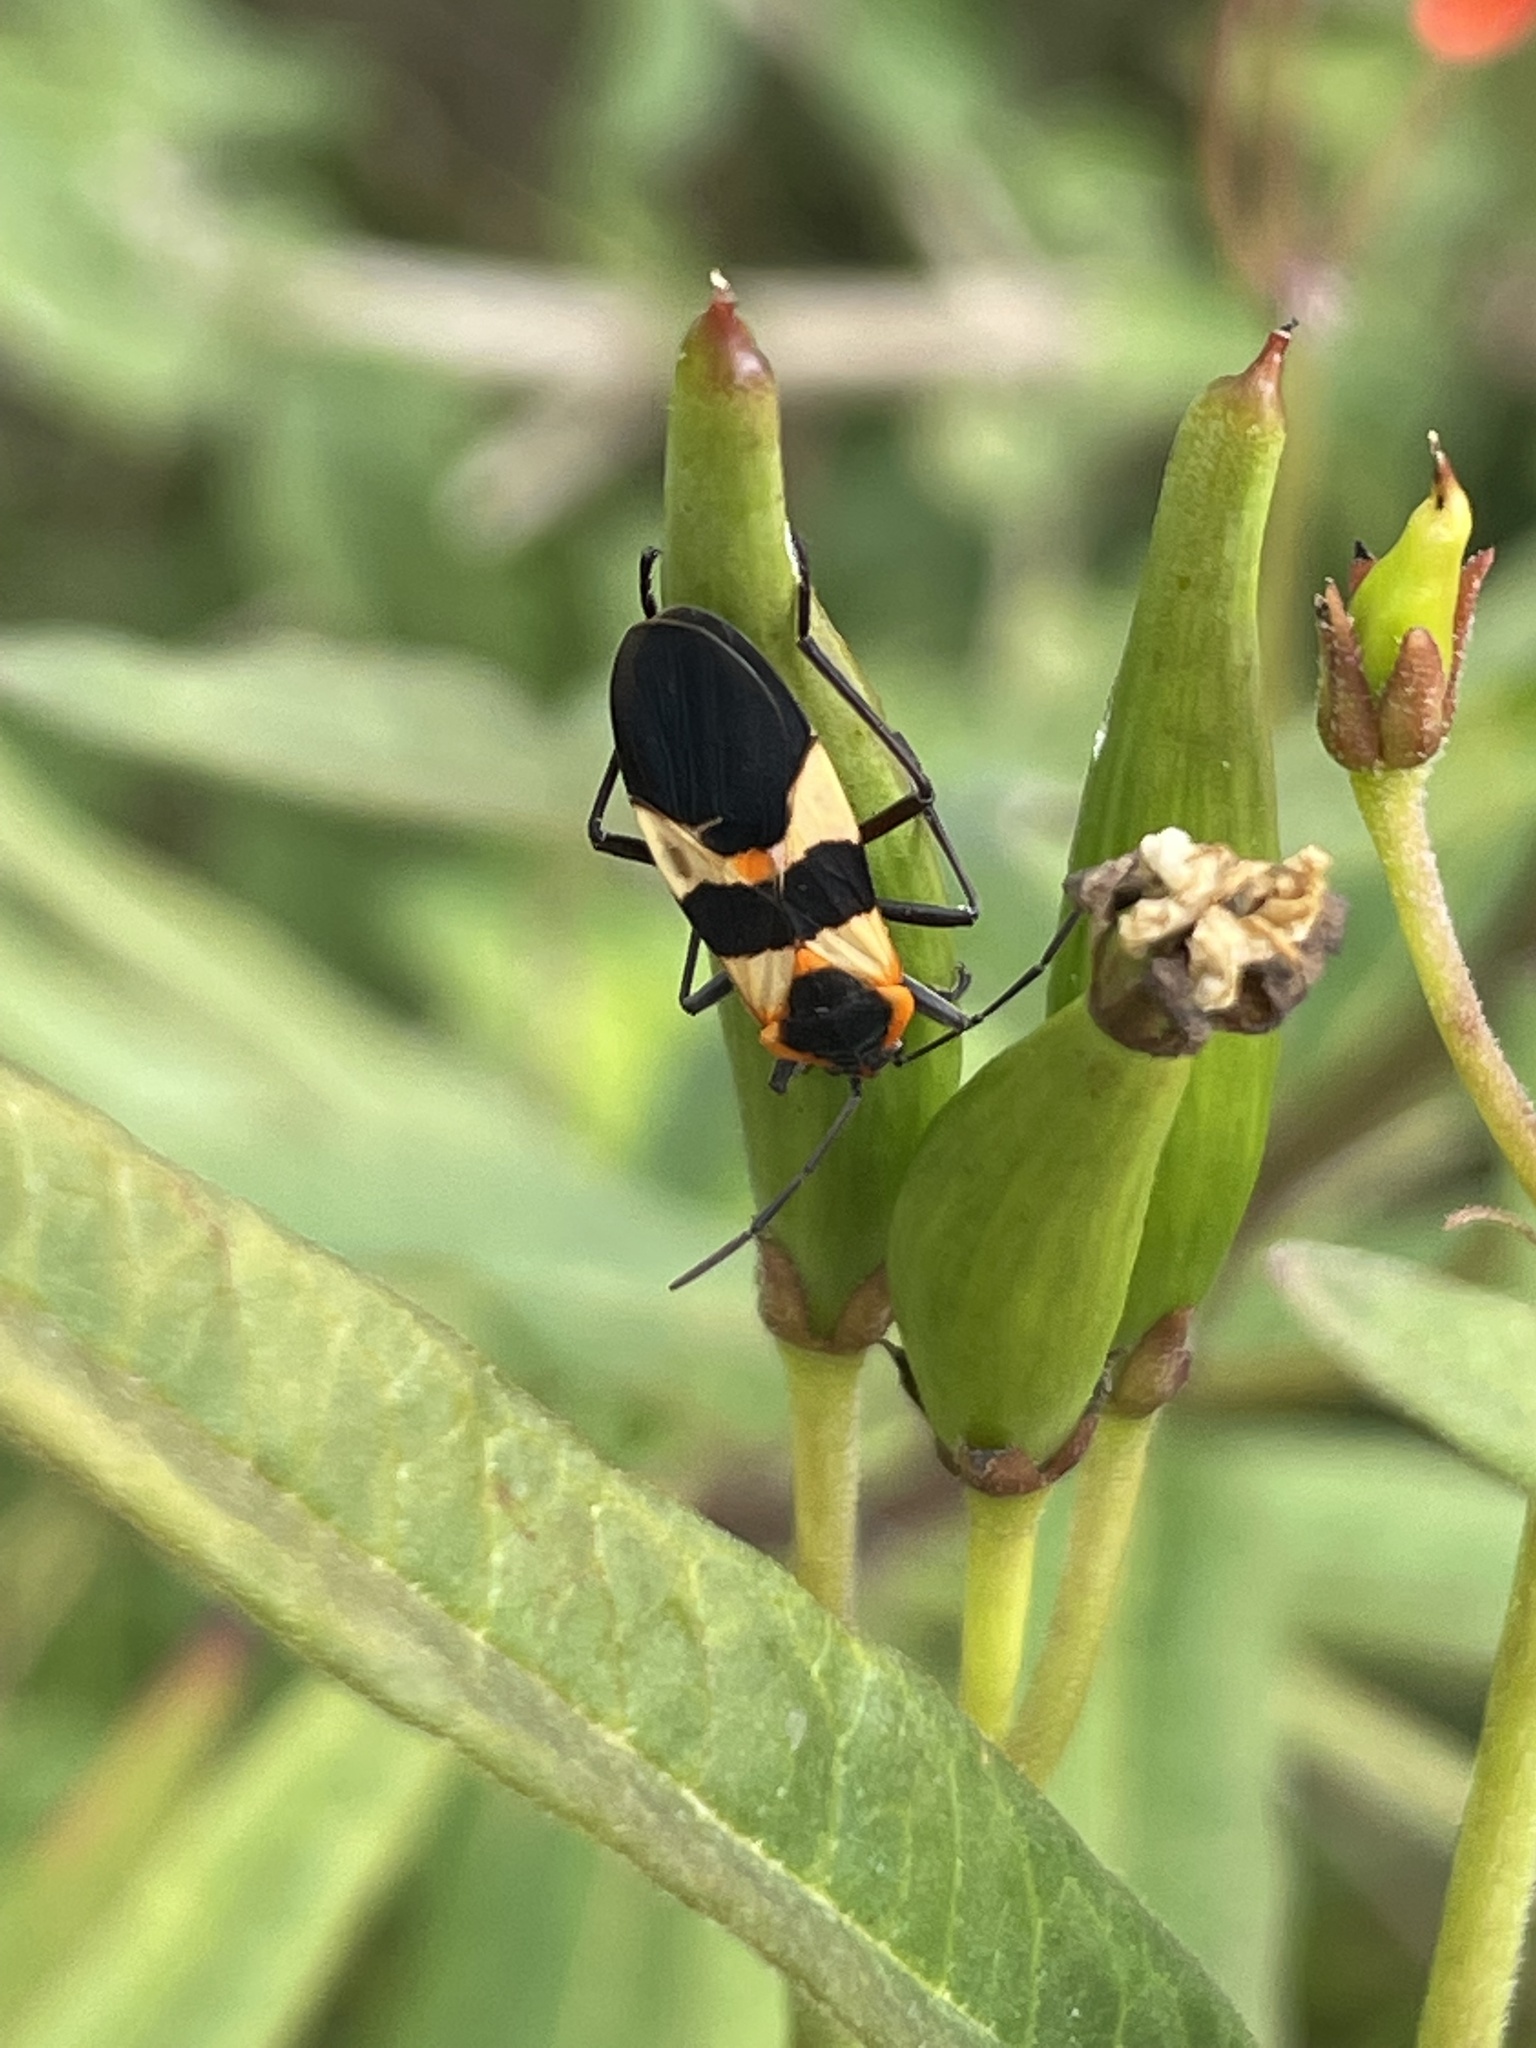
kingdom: Animalia
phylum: Arthropoda
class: Insecta
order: Hemiptera
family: Lygaeidae
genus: Oncopeltus
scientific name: Oncopeltus fasciatus
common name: Large milkweed bug
